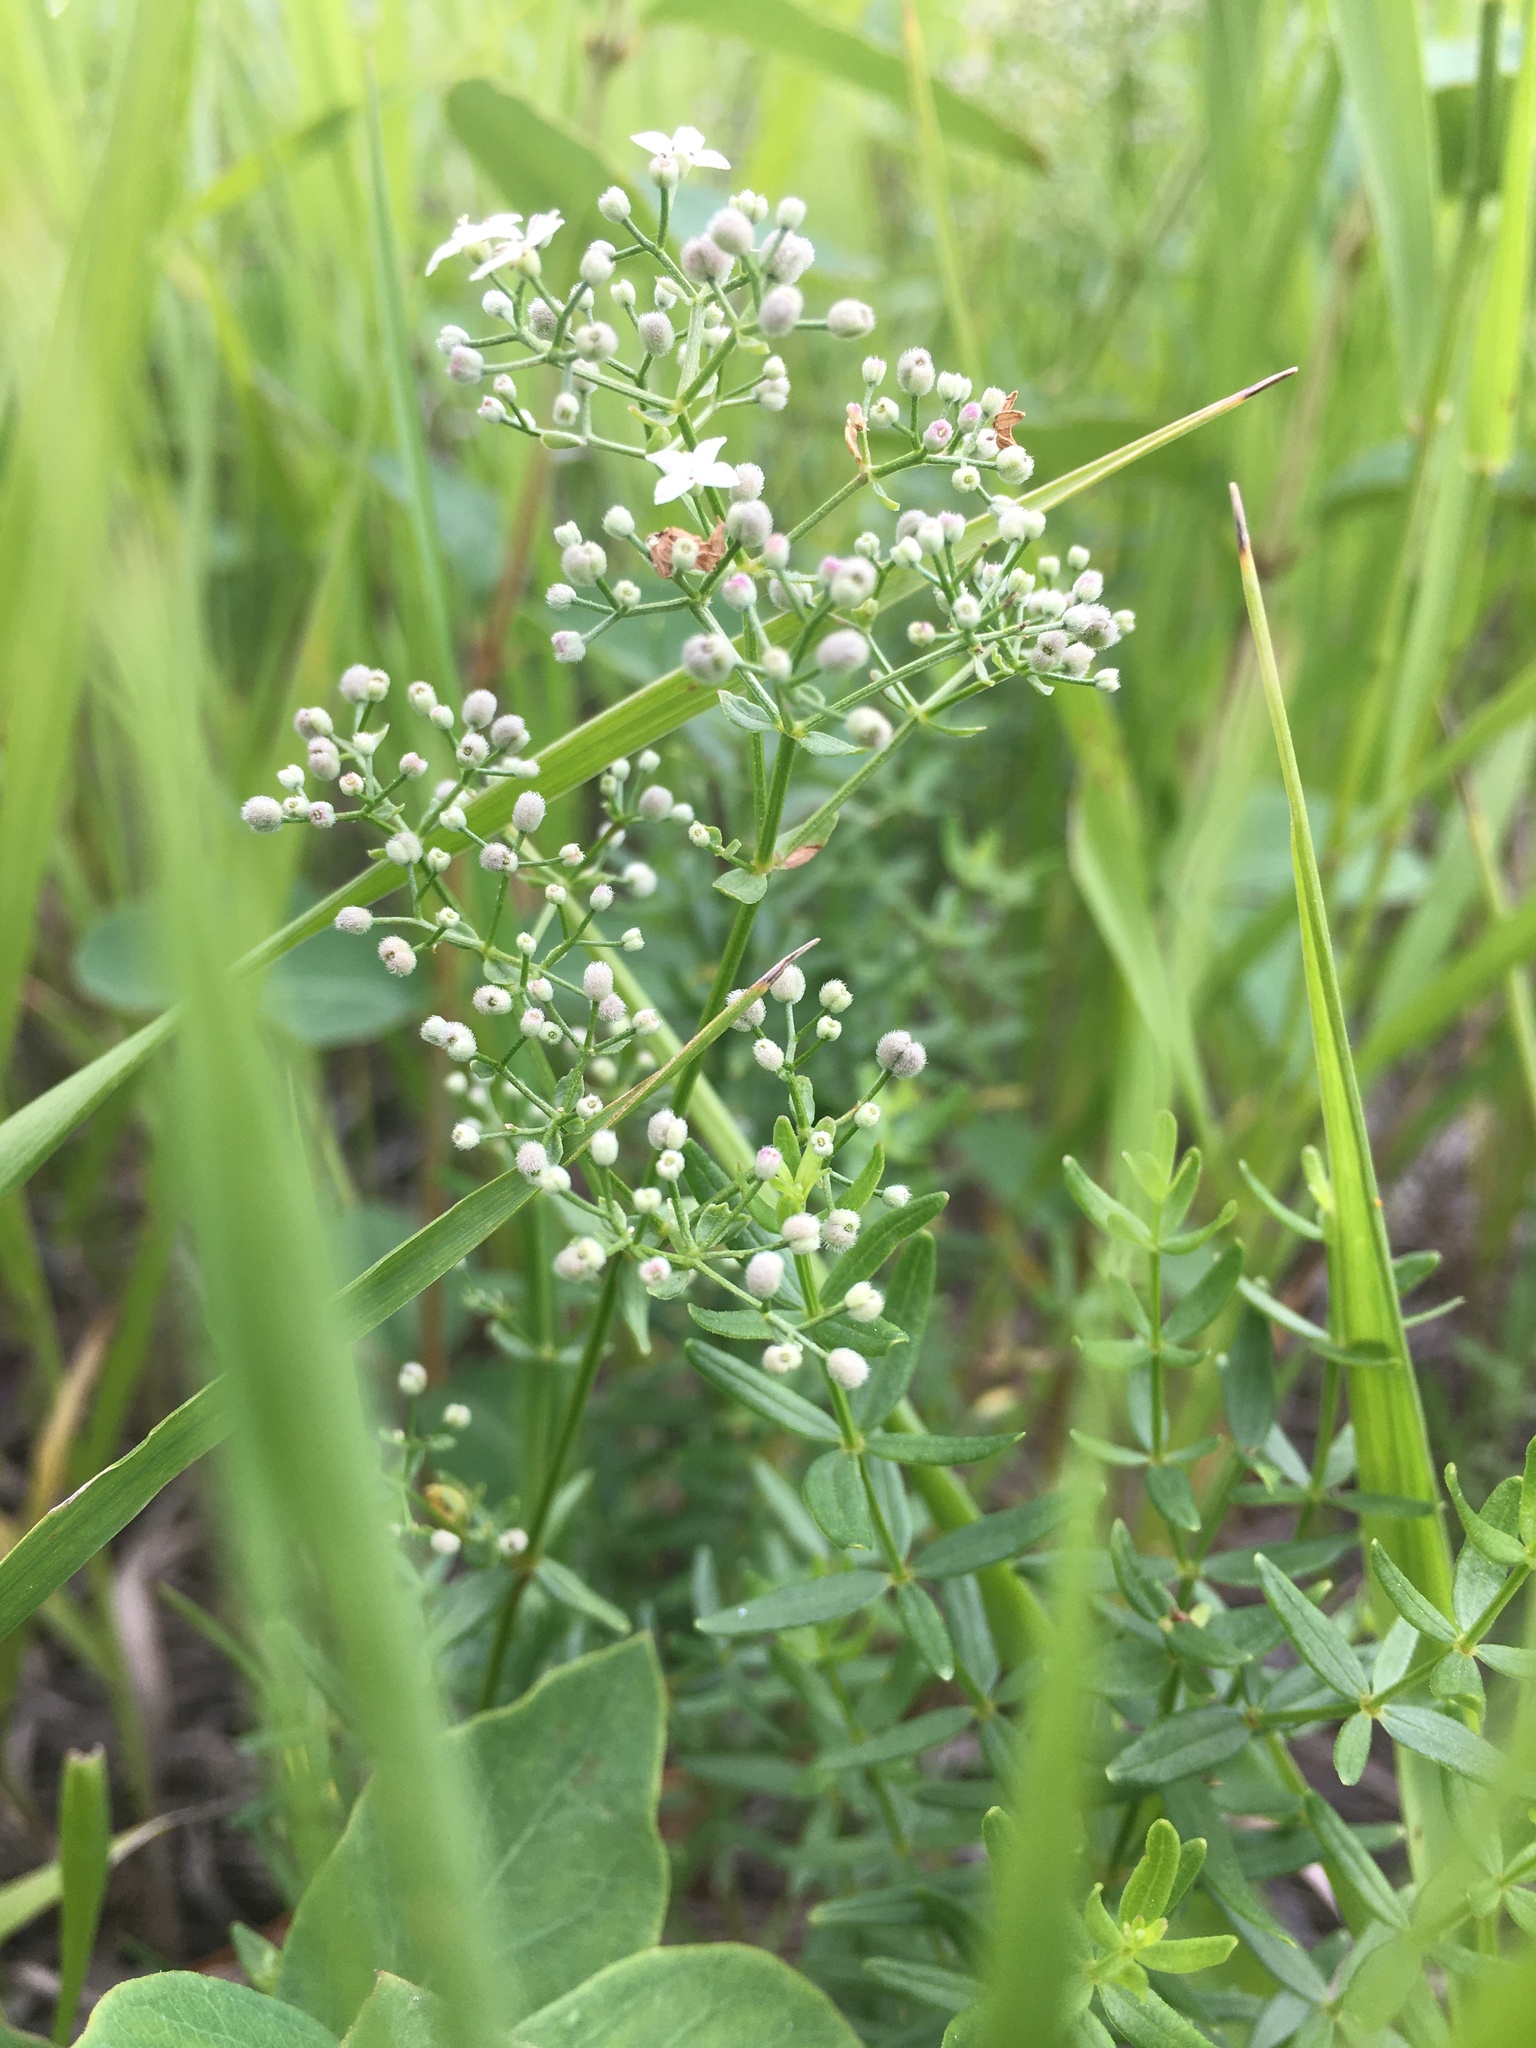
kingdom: Plantae
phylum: Tracheophyta
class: Magnoliopsida
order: Gentianales
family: Rubiaceae
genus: Galium
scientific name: Galium boreale
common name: Northern bedstraw
